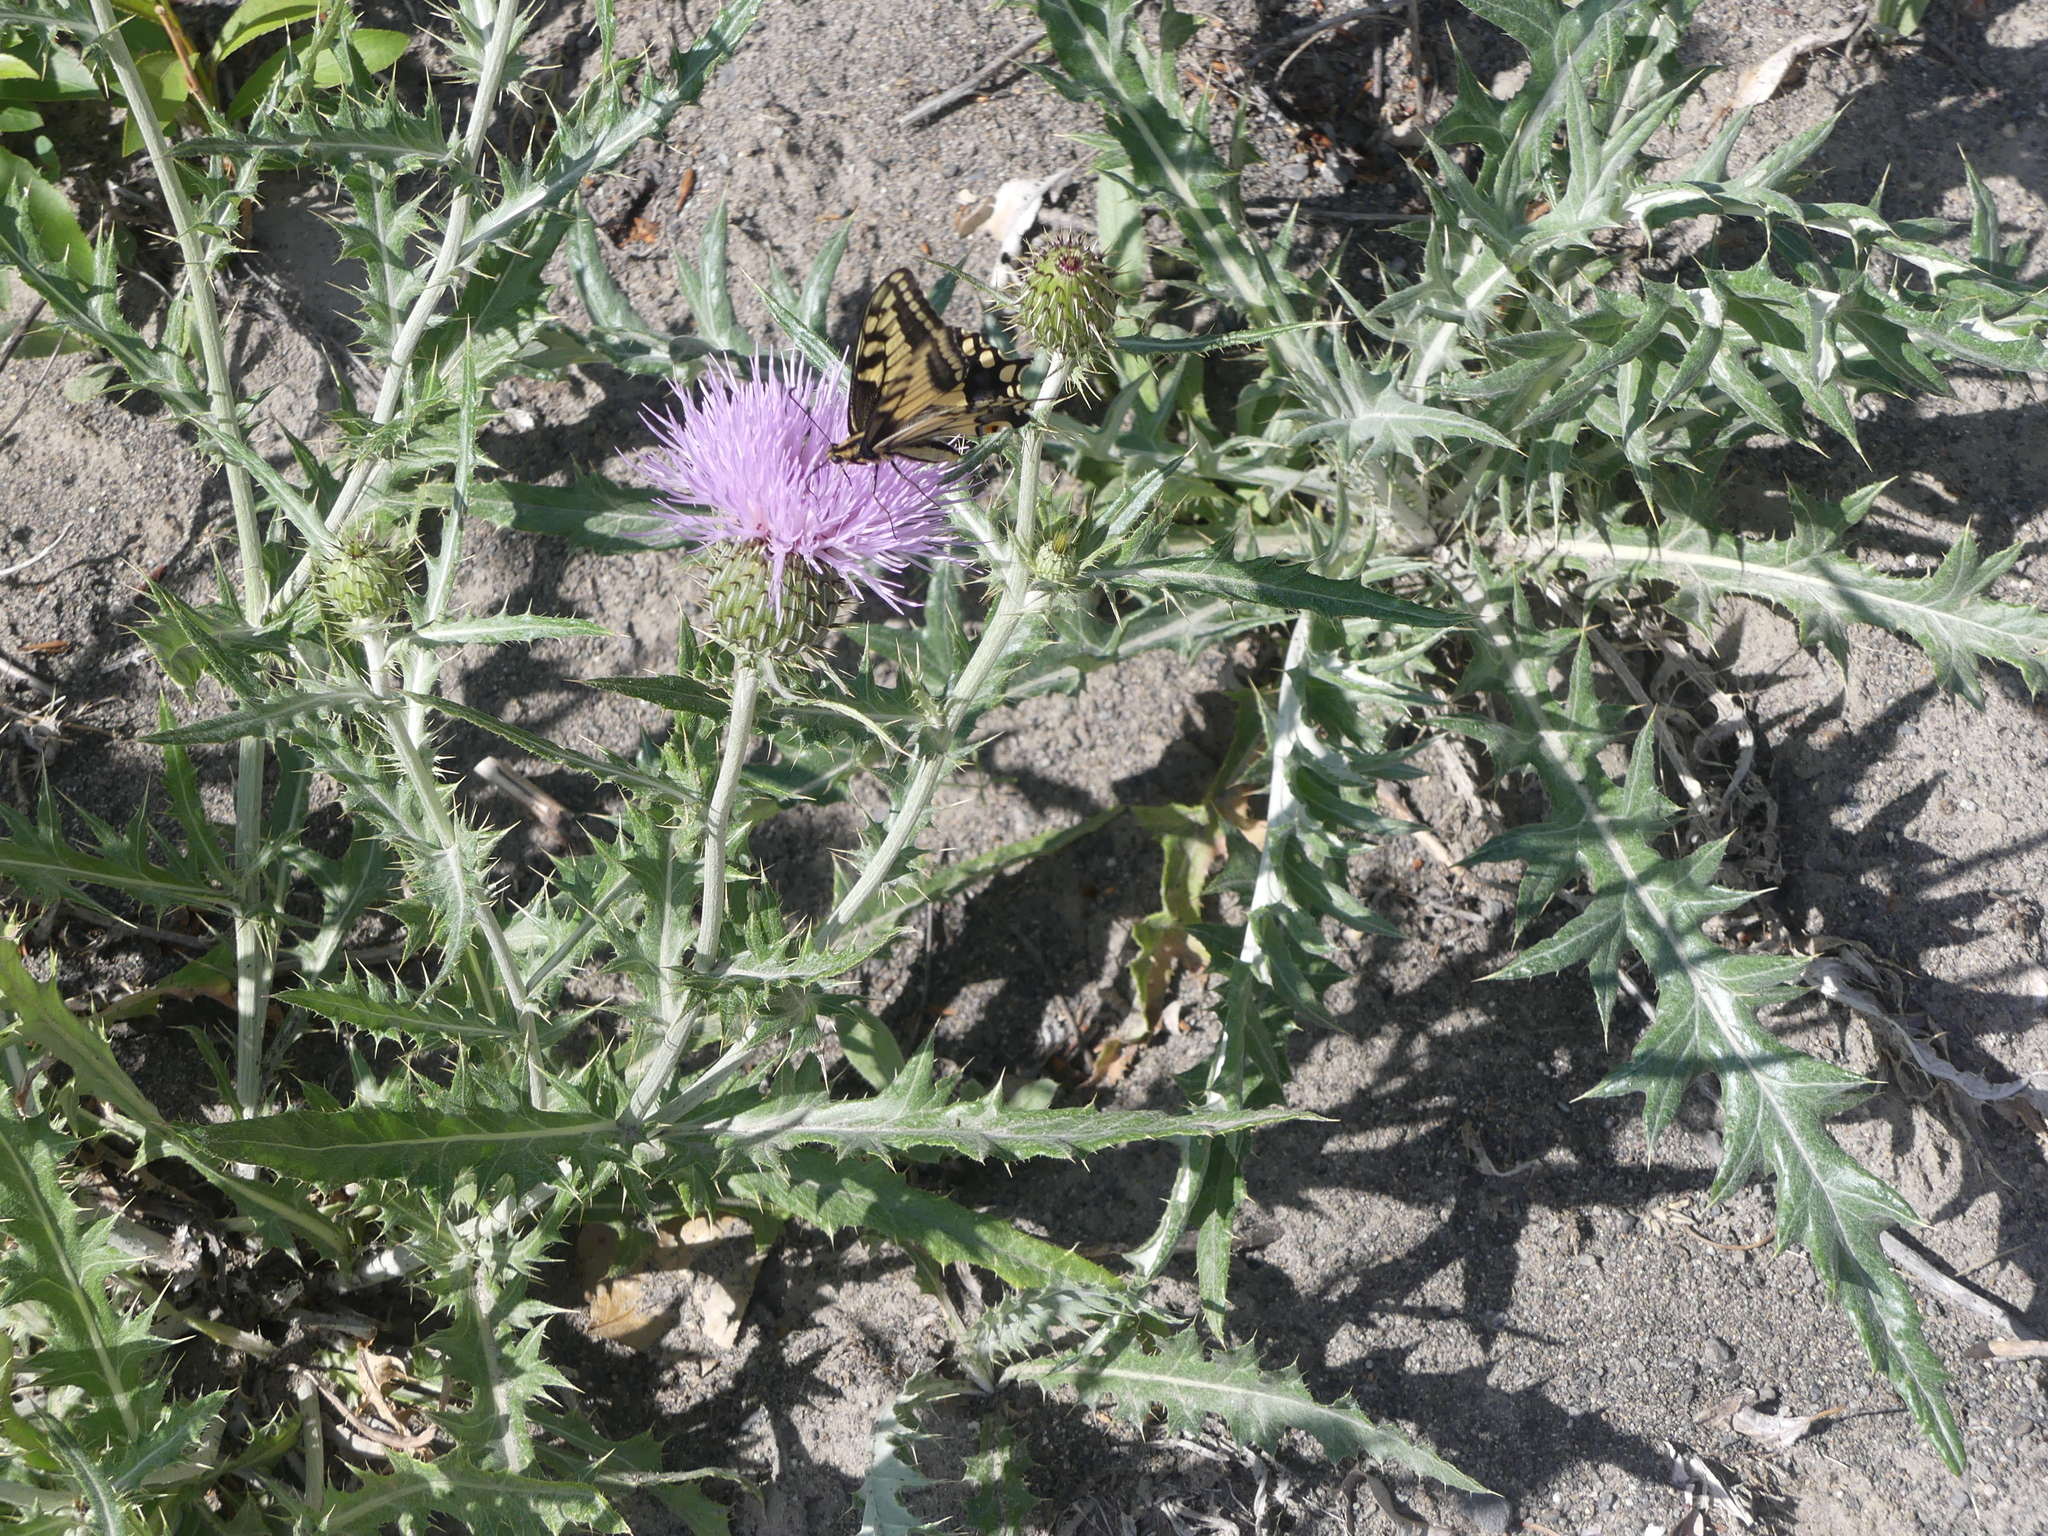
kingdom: Animalia
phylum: Arthropoda
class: Insecta
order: Lepidoptera
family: Papilionidae
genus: Papilio
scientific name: Papilio
